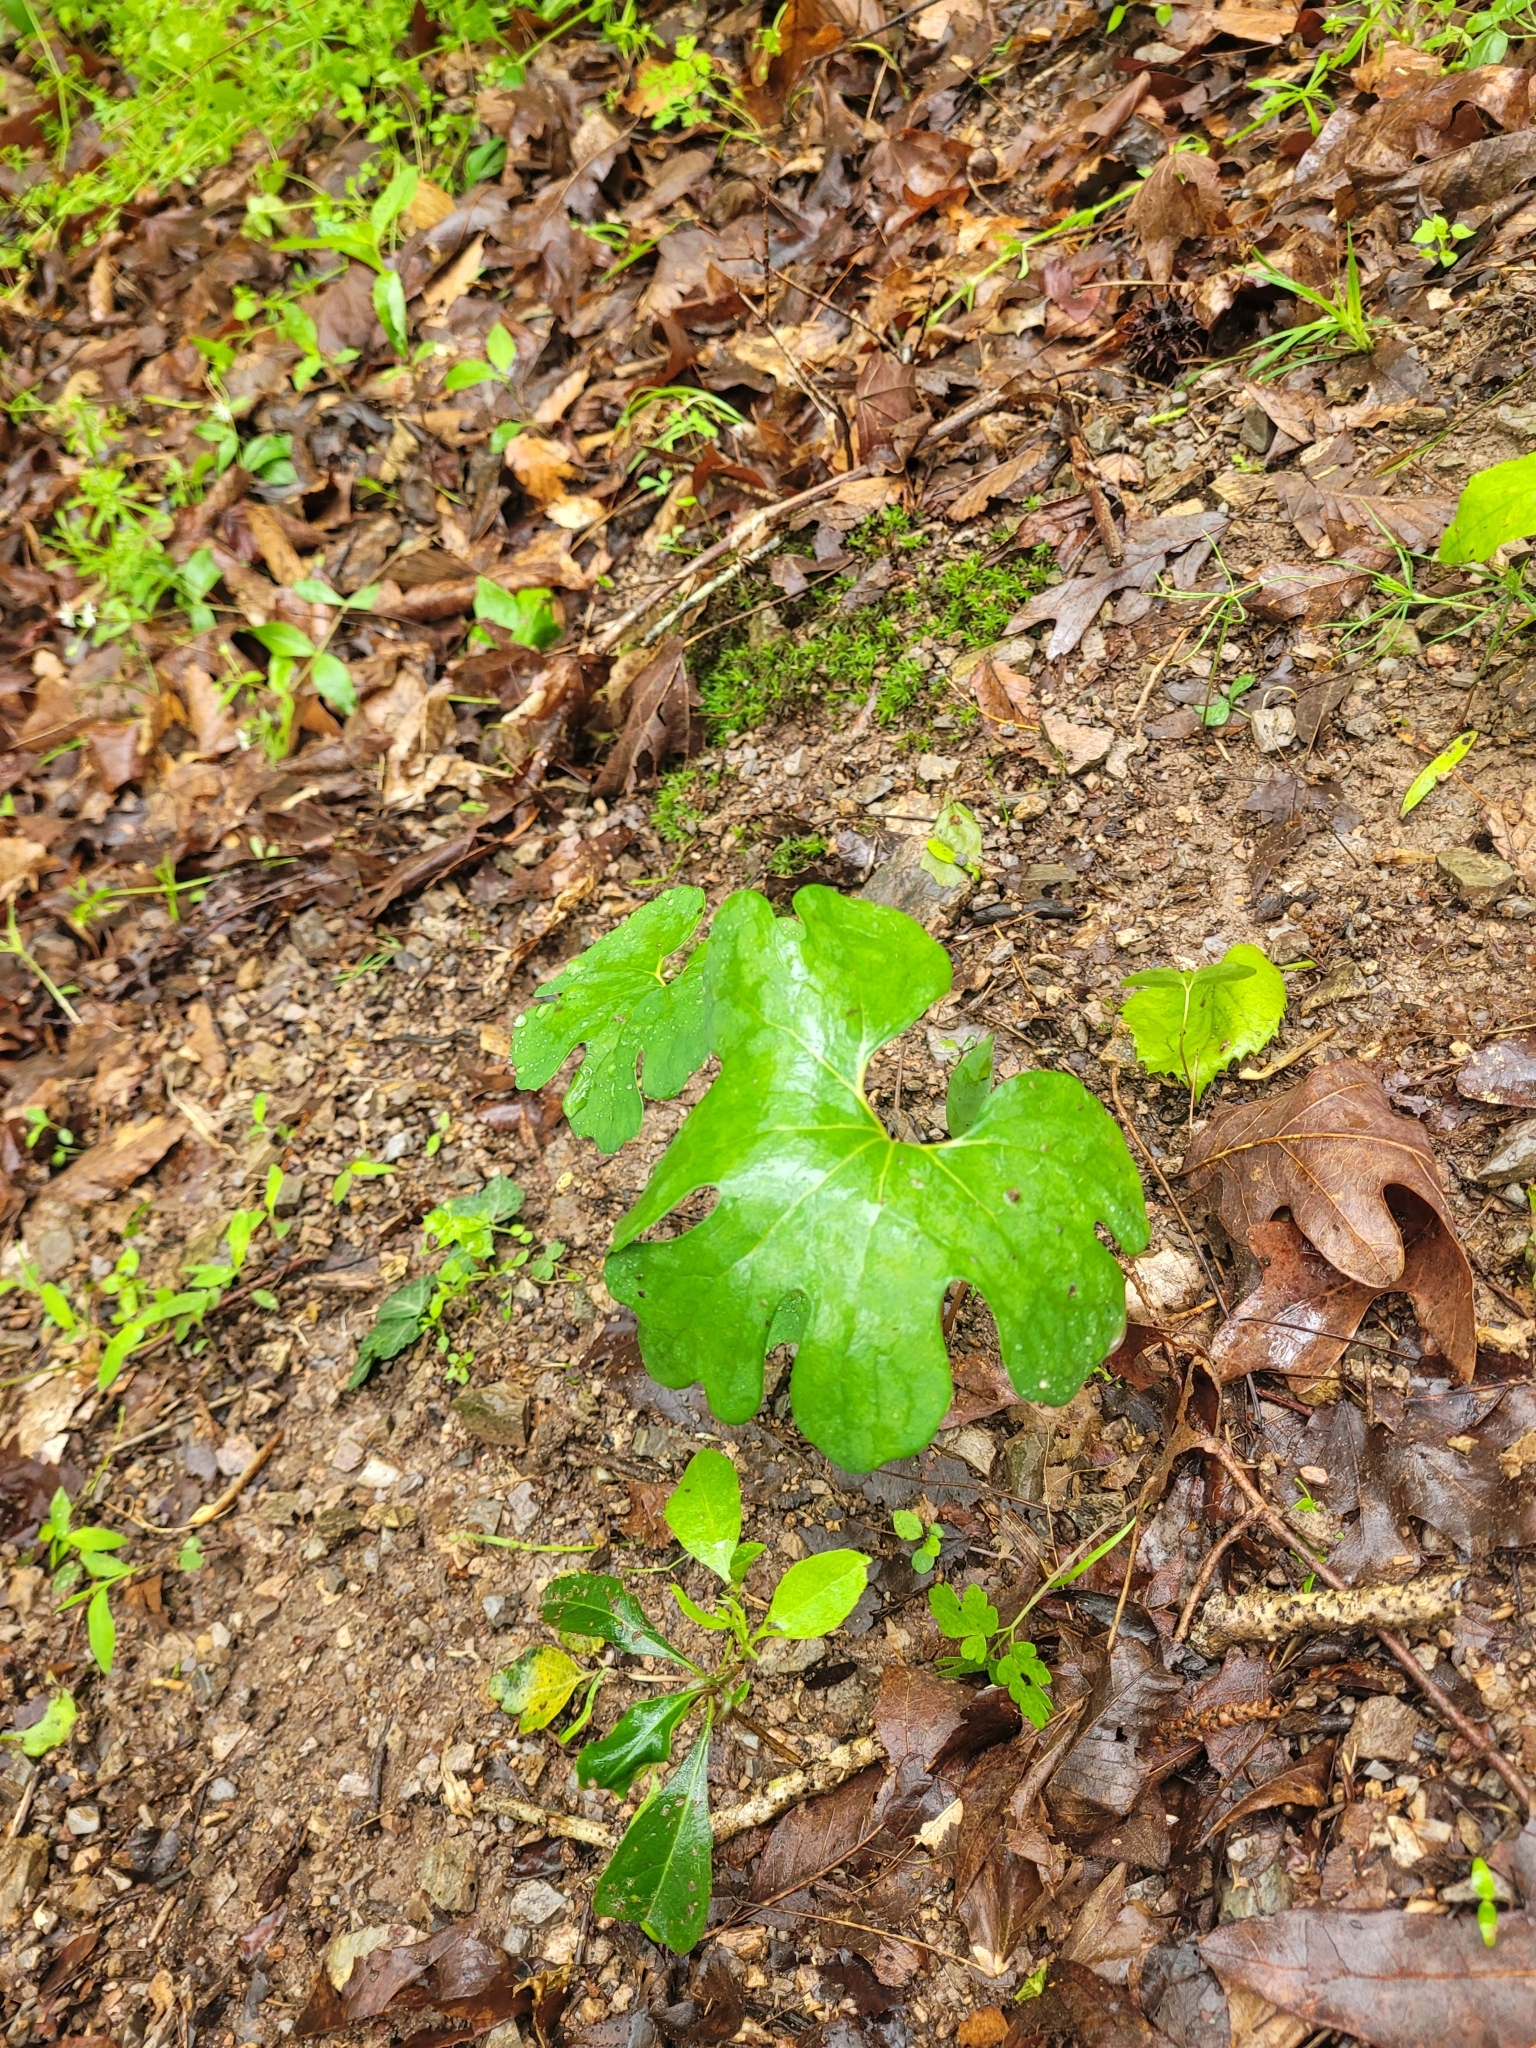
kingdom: Plantae
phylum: Tracheophyta
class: Magnoliopsida
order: Ranunculales
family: Papaveraceae
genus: Sanguinaria
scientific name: Sanguinaria canadensis
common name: Bloodroot
